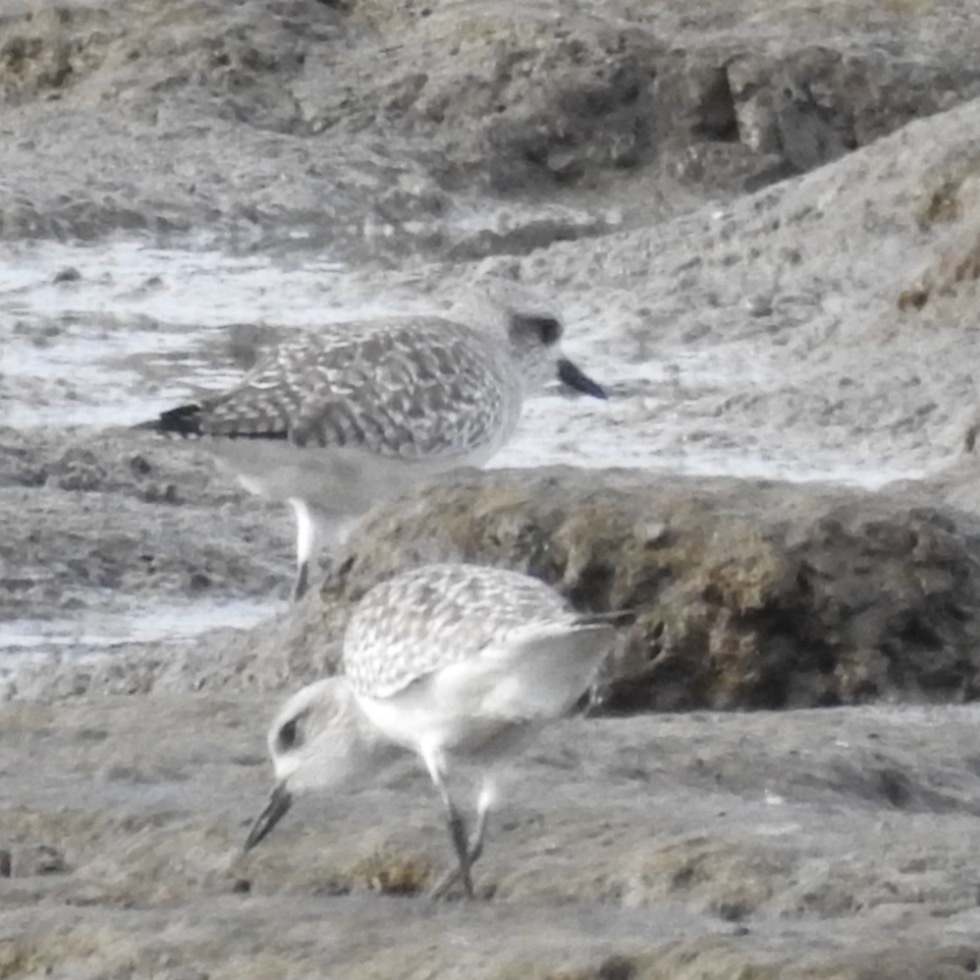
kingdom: Animalia
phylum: Chordata
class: Aves
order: Charadriiformes
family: Charadriidae
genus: Pluvialis
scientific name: Pluvialis squatarola
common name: Grey plover
